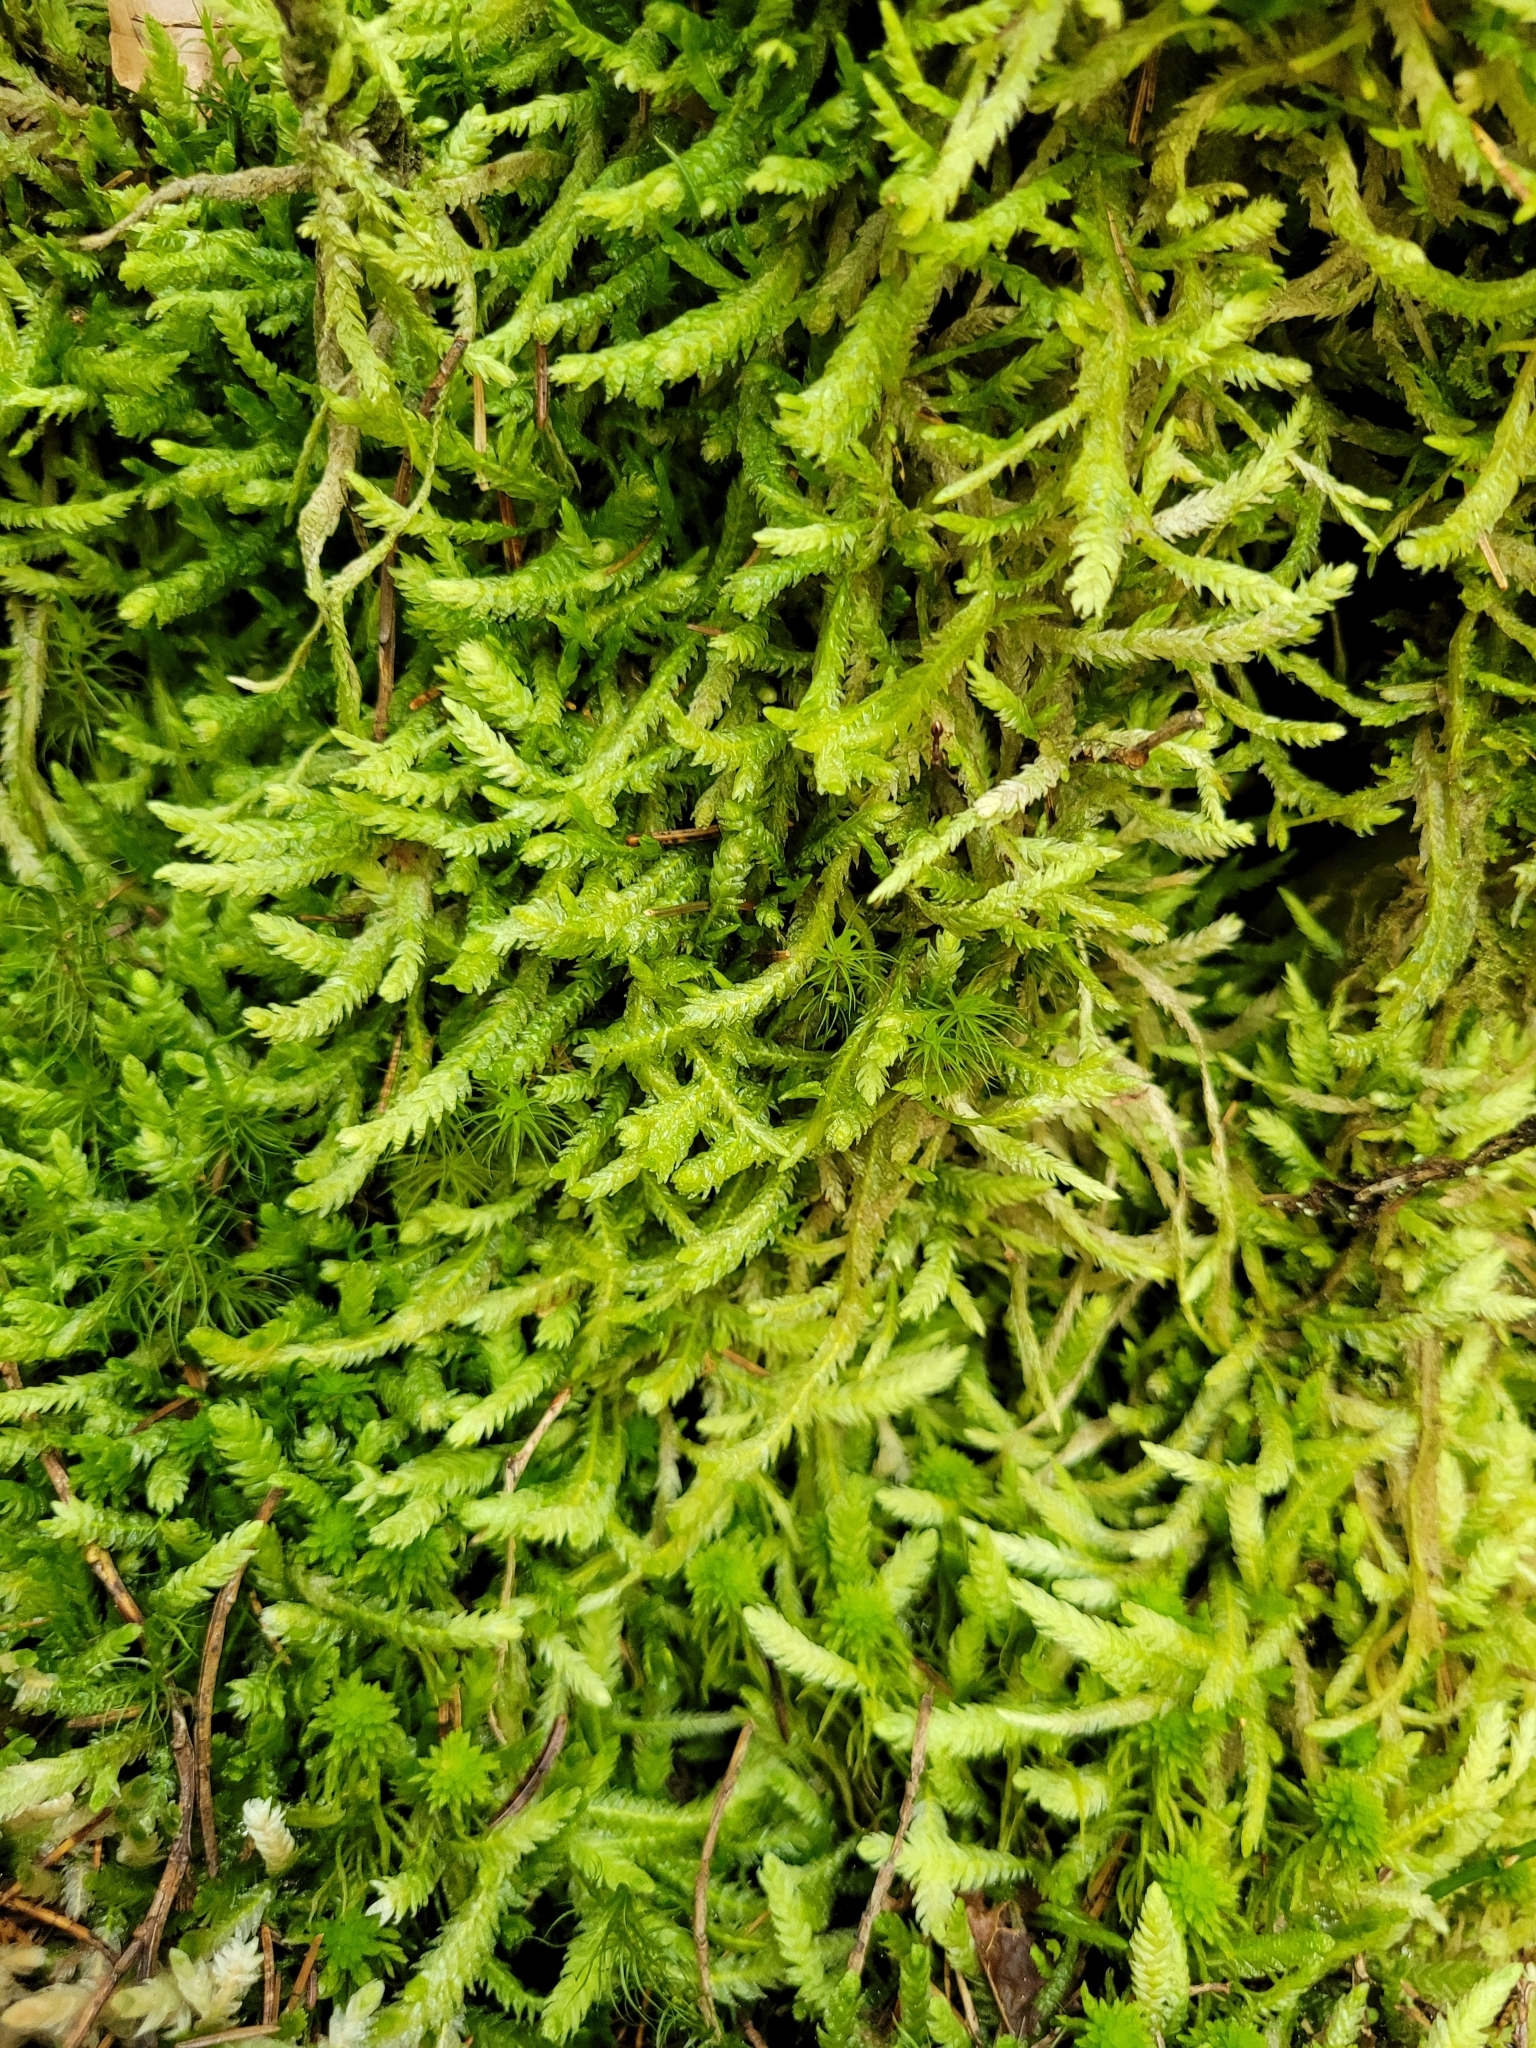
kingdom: Plantae
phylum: Bryophyta
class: Bryopsida
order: Hypnales
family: Plagiotheciaceae
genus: Plagiothecium
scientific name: Plagiothecium undulatum
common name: Waved silk-moss
